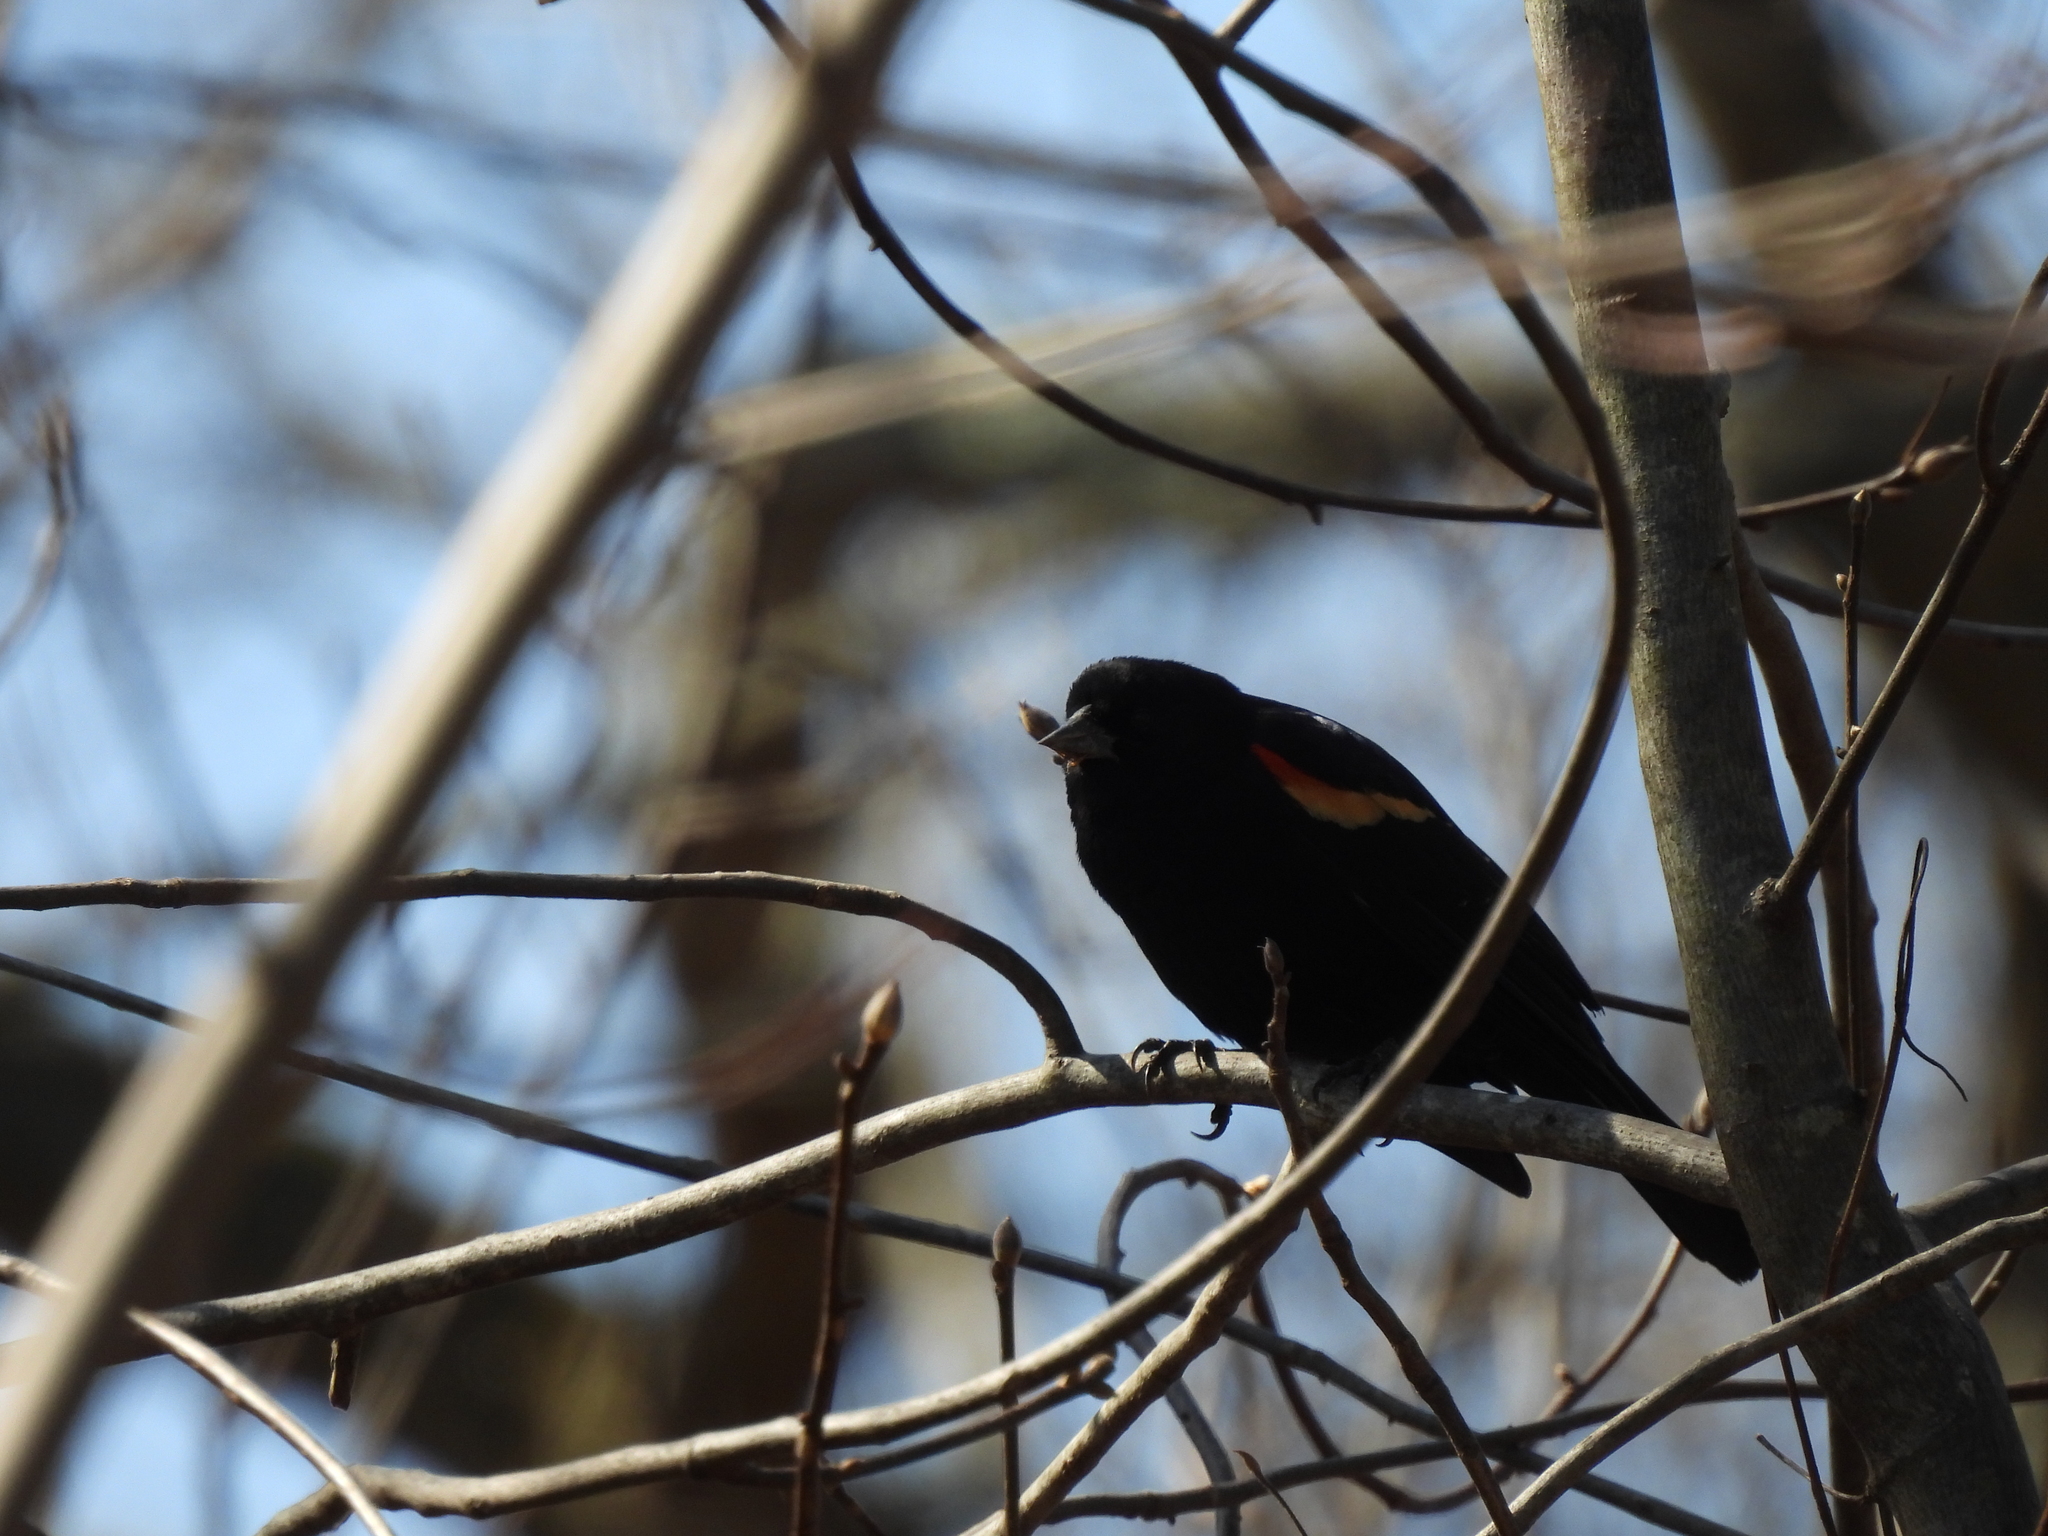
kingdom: Animalia
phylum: Chordata
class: Aves
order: Passeriformes
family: Icteridae
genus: Agelaius
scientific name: Agelaius phoeniceus
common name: Red-winged blackbird
